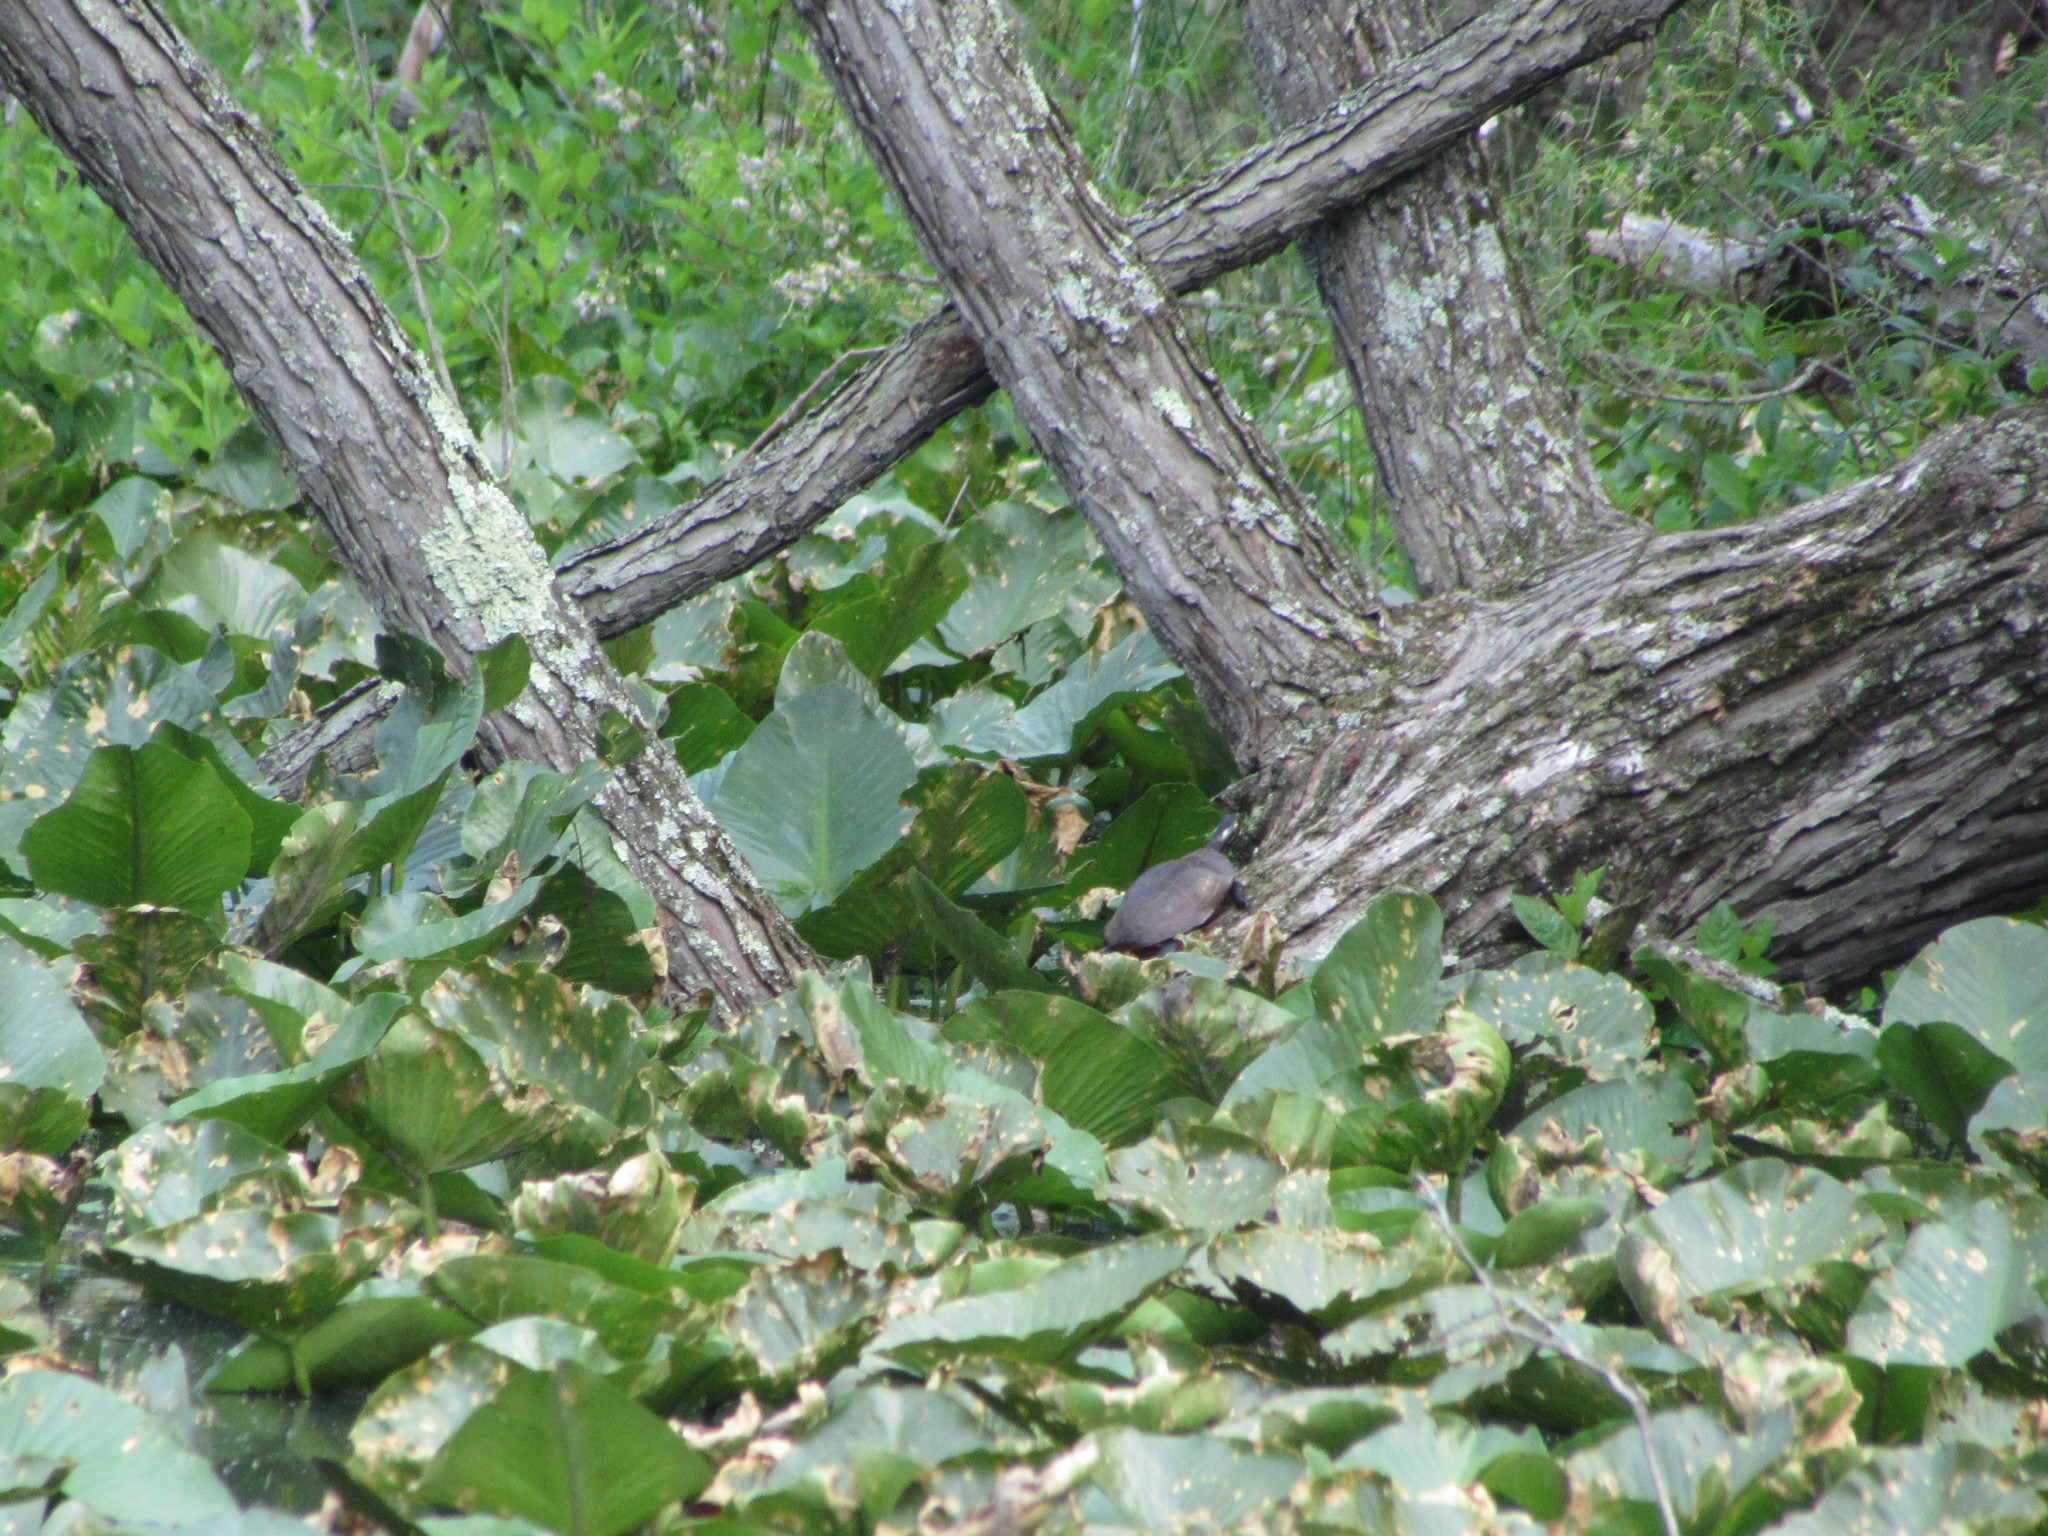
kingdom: Animalia
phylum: Chordata
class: Testudines
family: Emydidae
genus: Chrysemys
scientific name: Chrysemys picta
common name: Painted turtle
